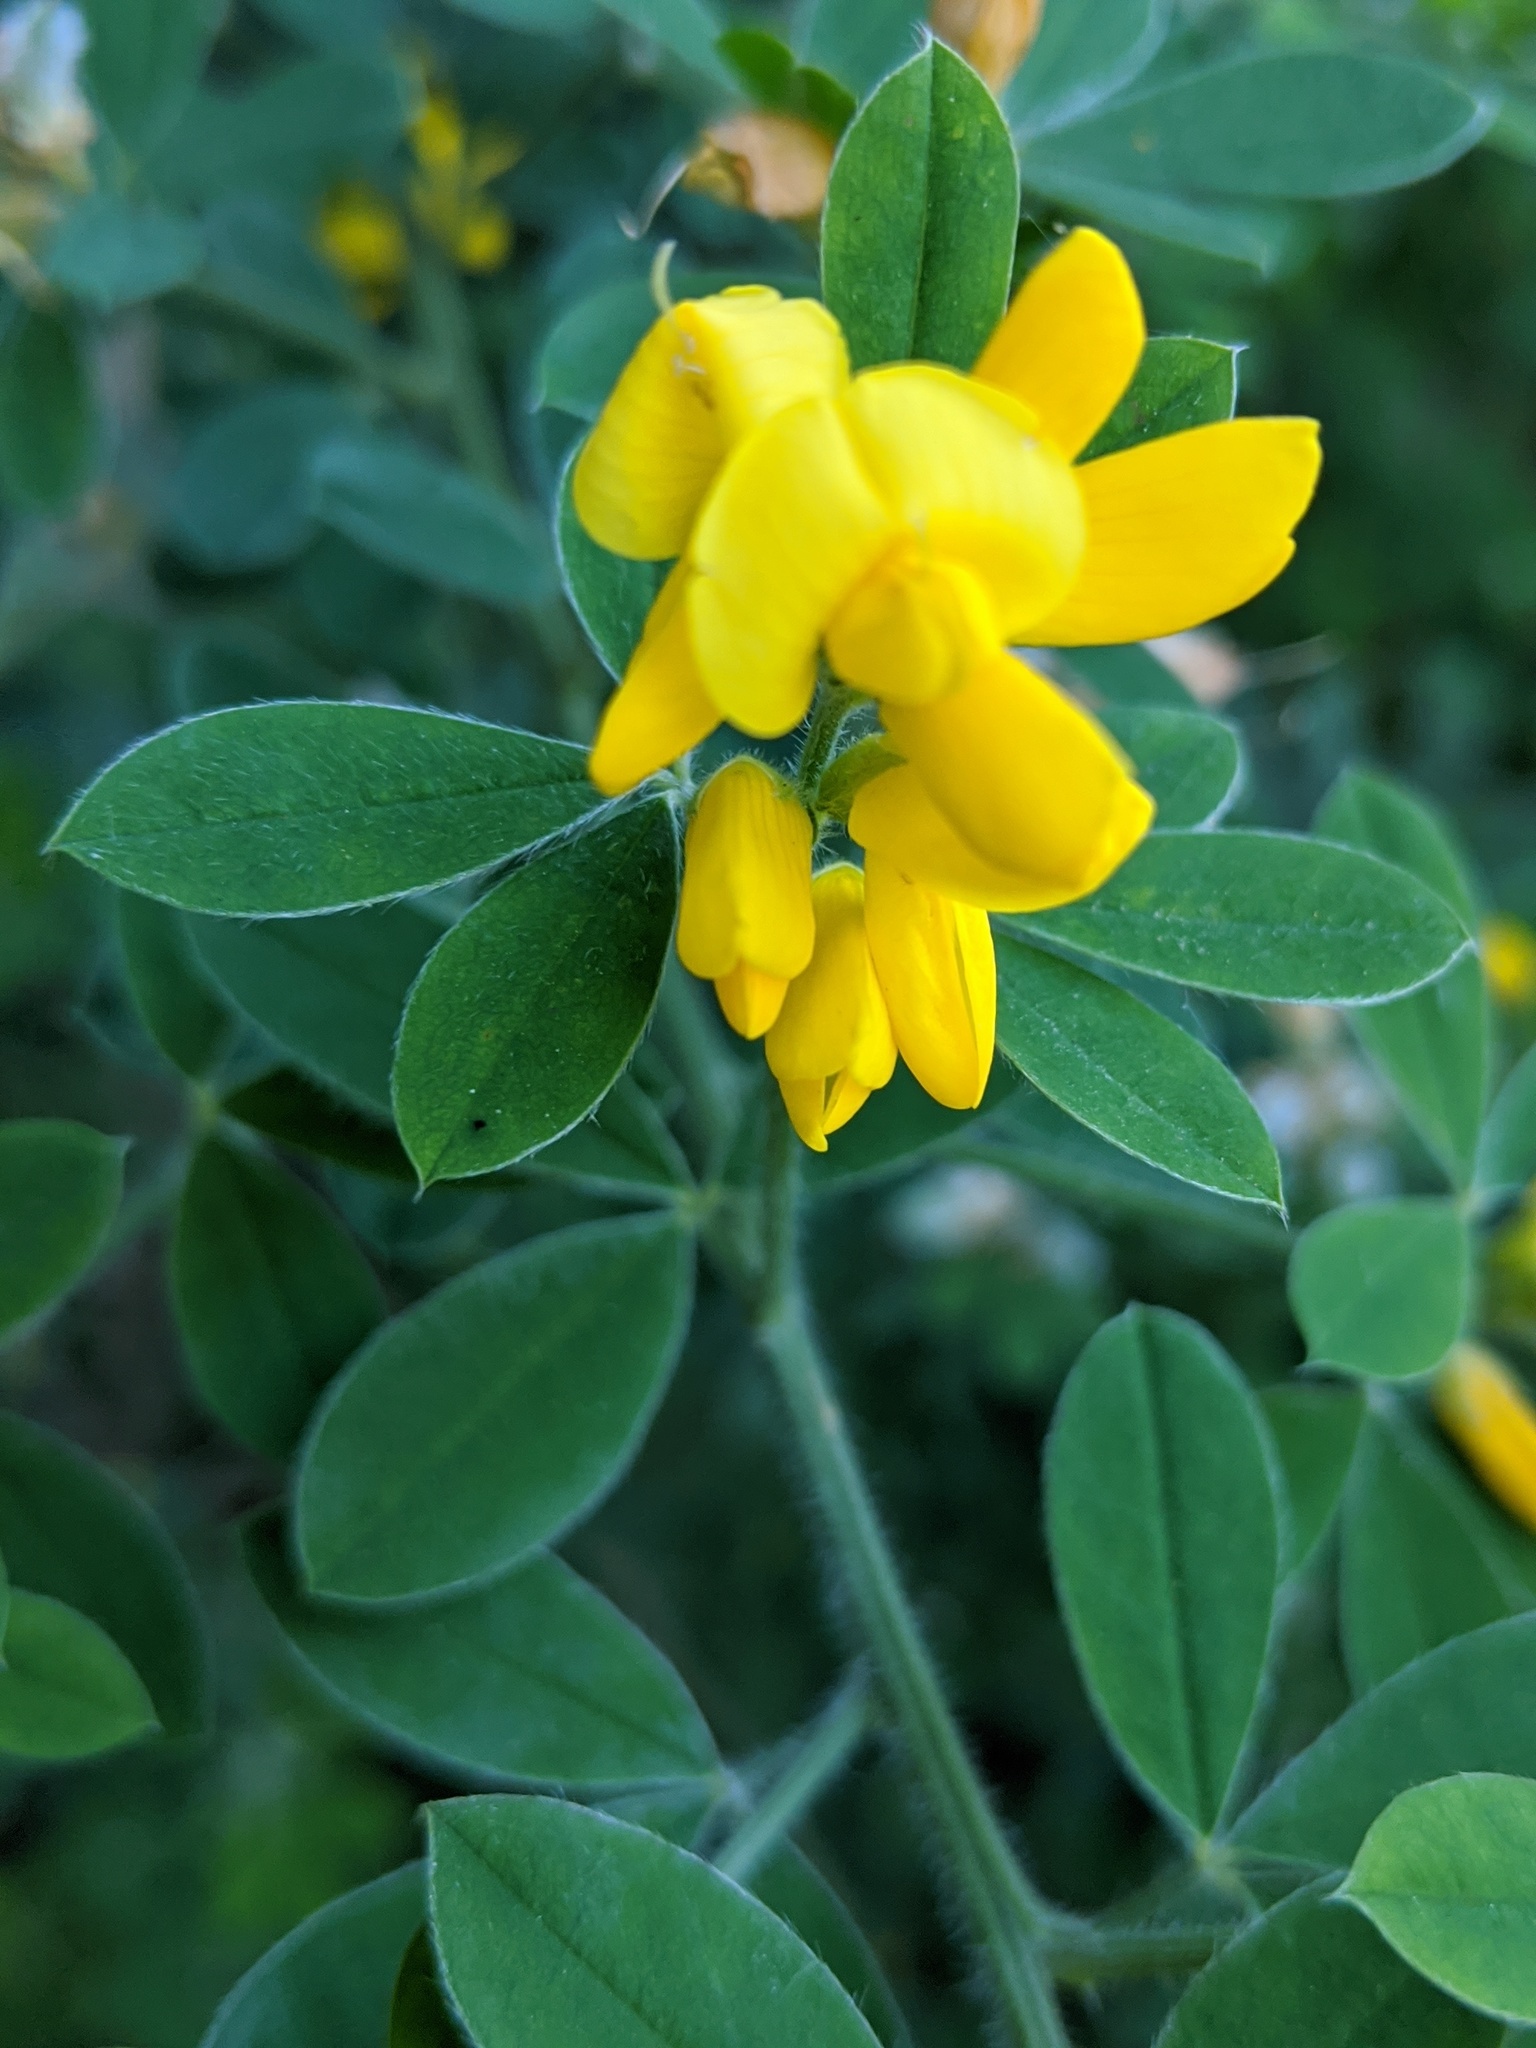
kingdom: Plantae
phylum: Tracheophyta
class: Magnoliopsida
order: Fabales
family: Fabaceae
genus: Genista
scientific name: Genista monspessulana
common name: Montpellier broom
